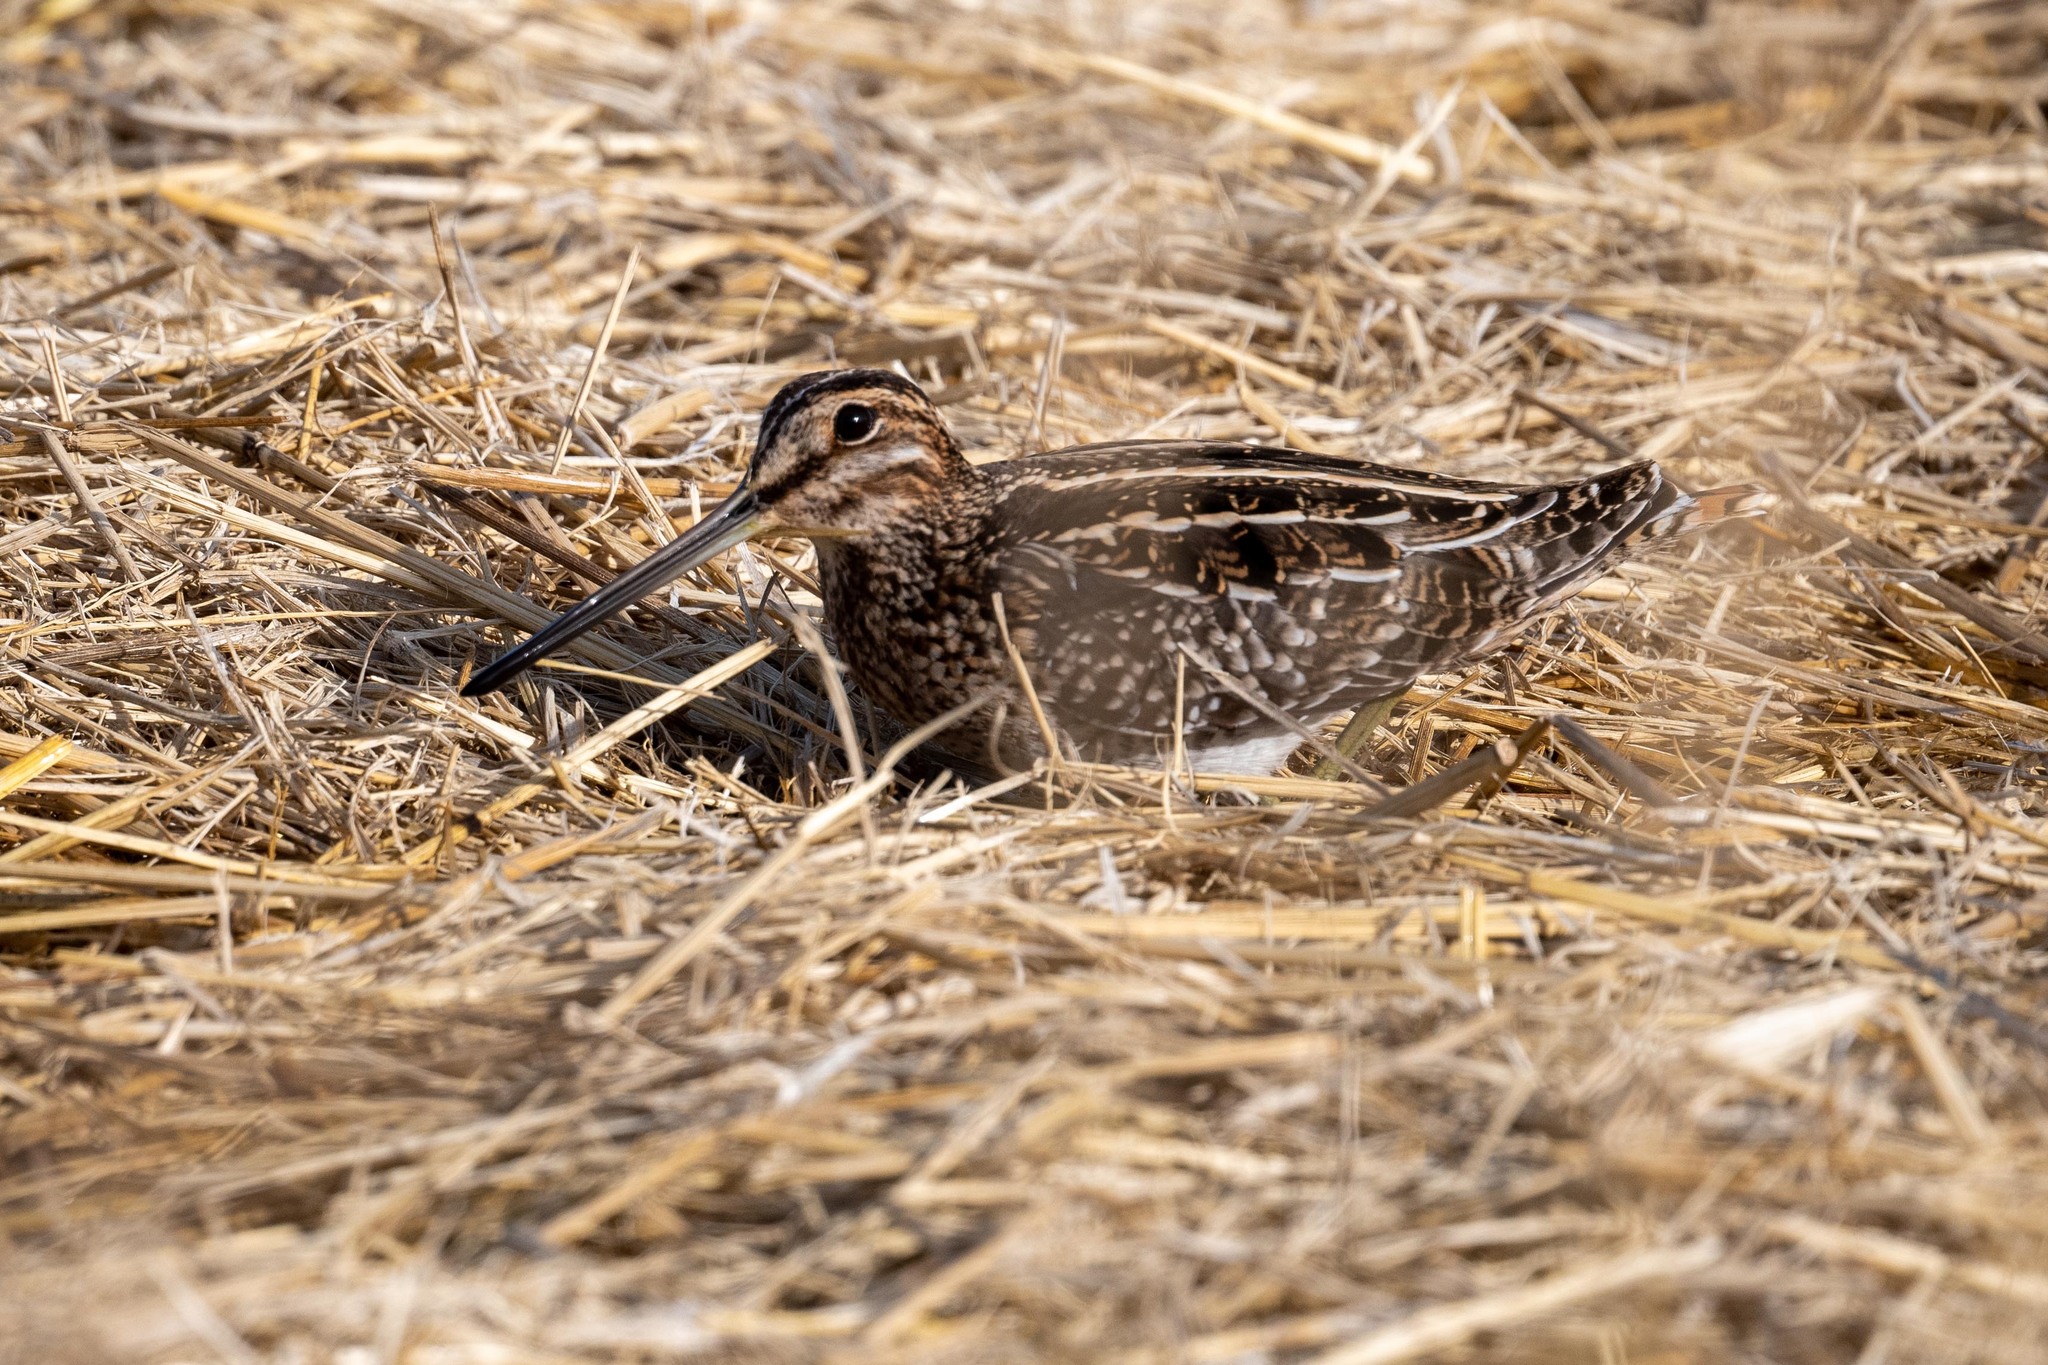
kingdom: Animalia
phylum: Chordata
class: Aves
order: Charadriiformes
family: Scolopacidae
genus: Gallinago
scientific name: Gallinago delicata
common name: Wilson's snipe
